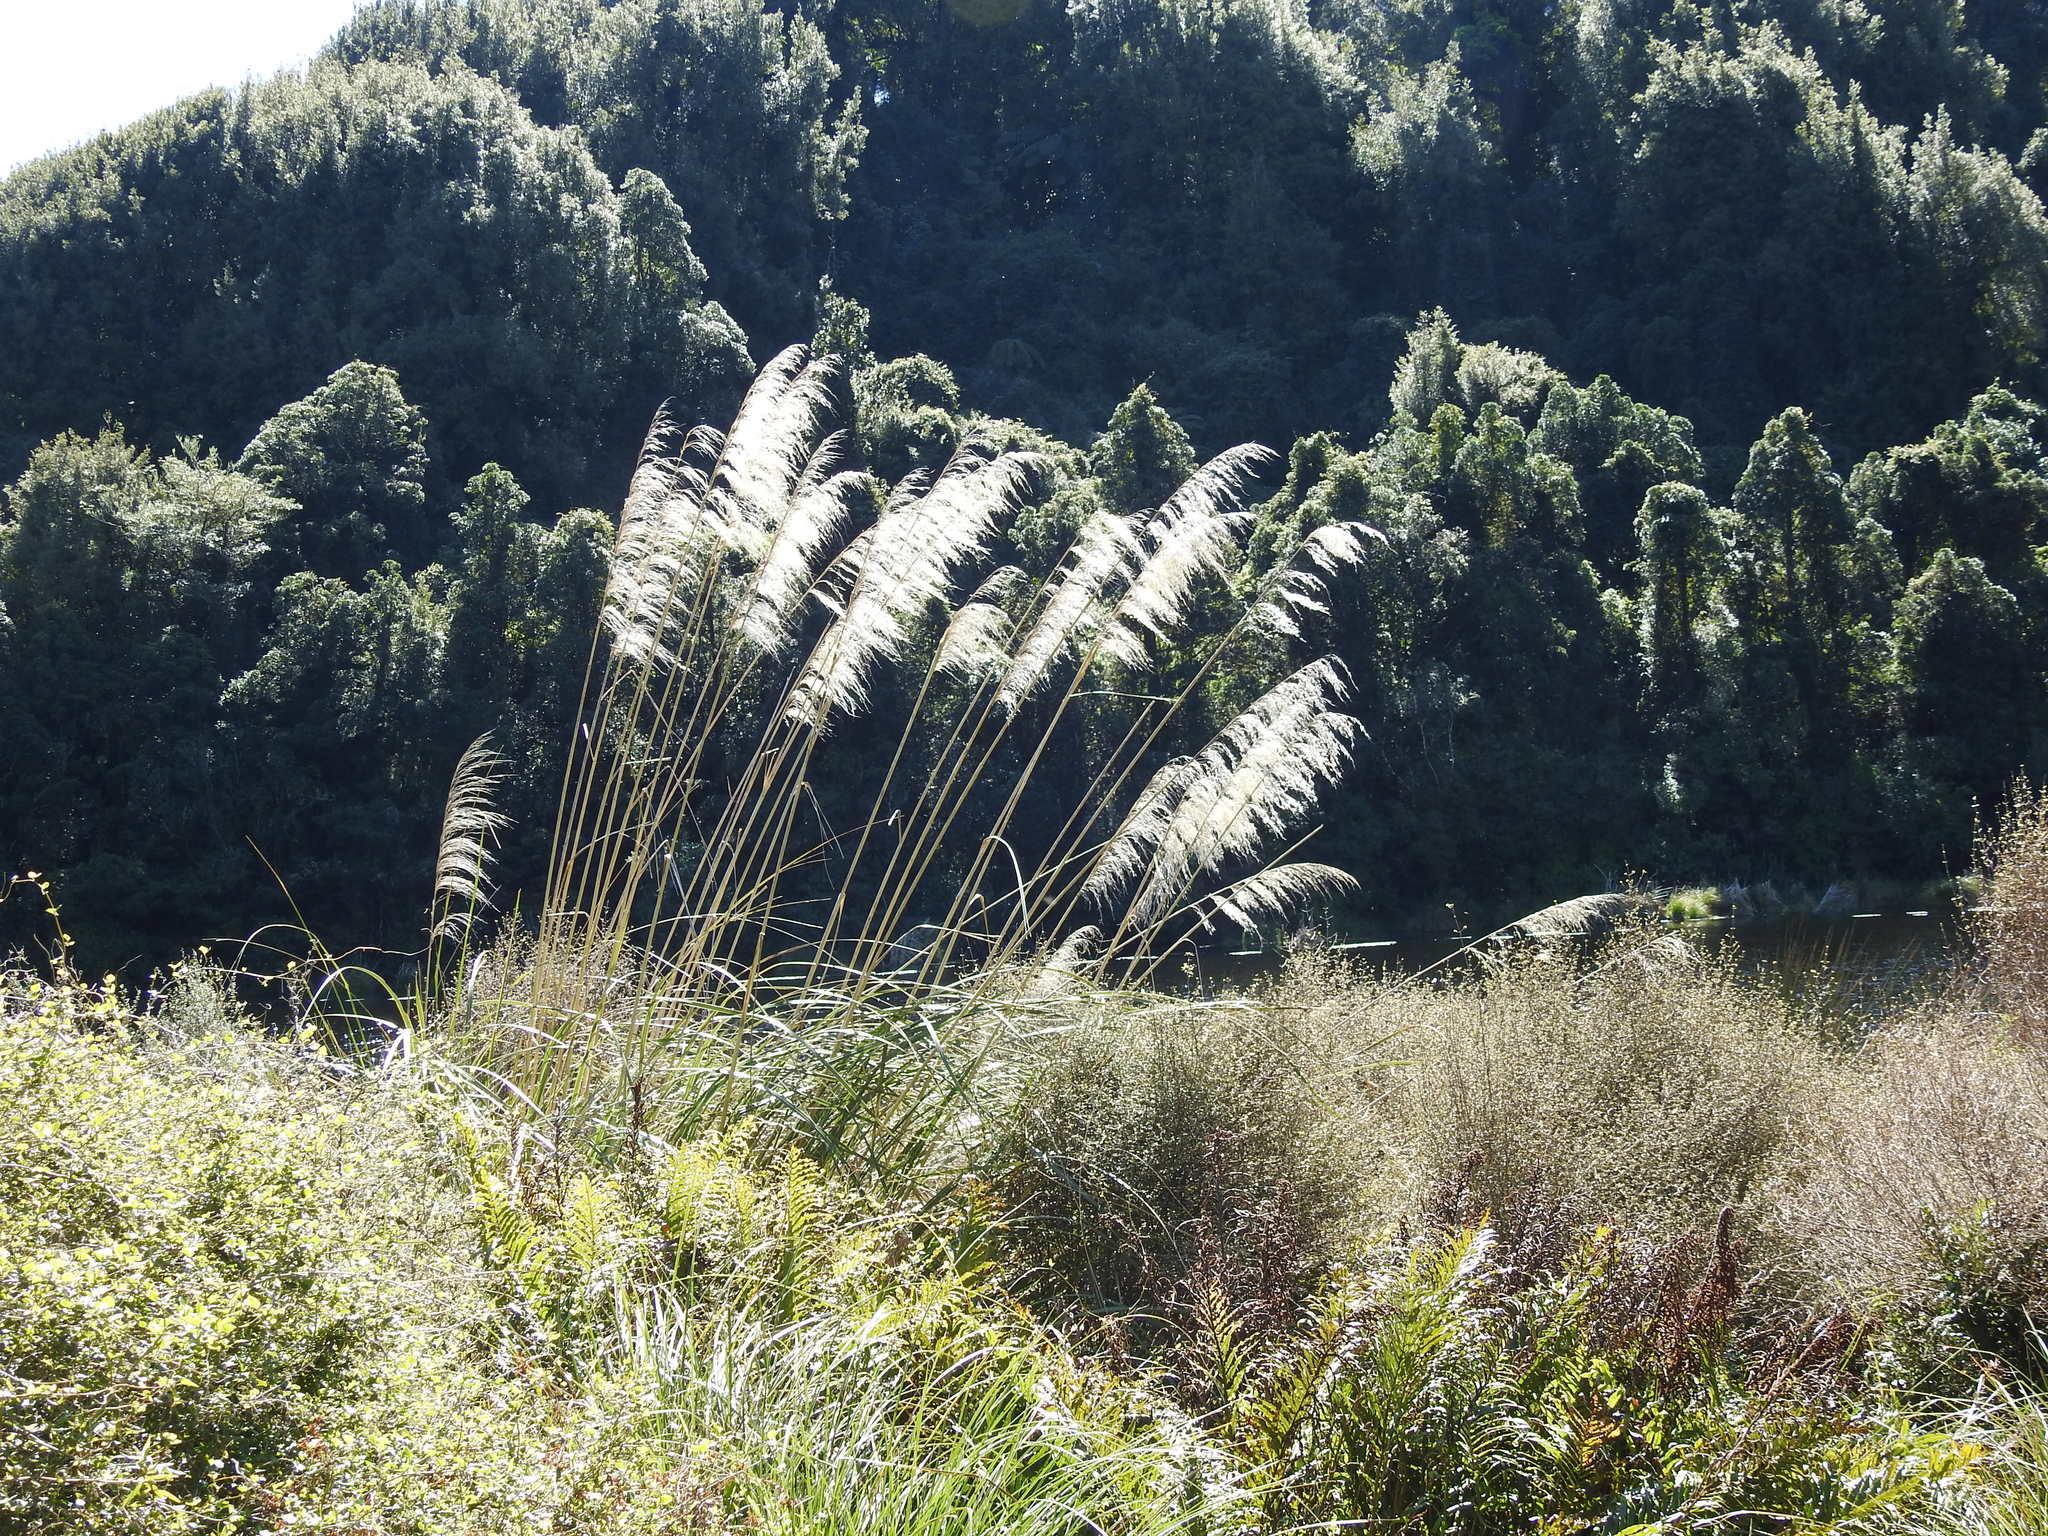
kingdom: Plantae
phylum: Tracheophyta
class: Liliopsida
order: Poales
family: Poaceae
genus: Austroderia
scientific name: Austroderia toetoe
